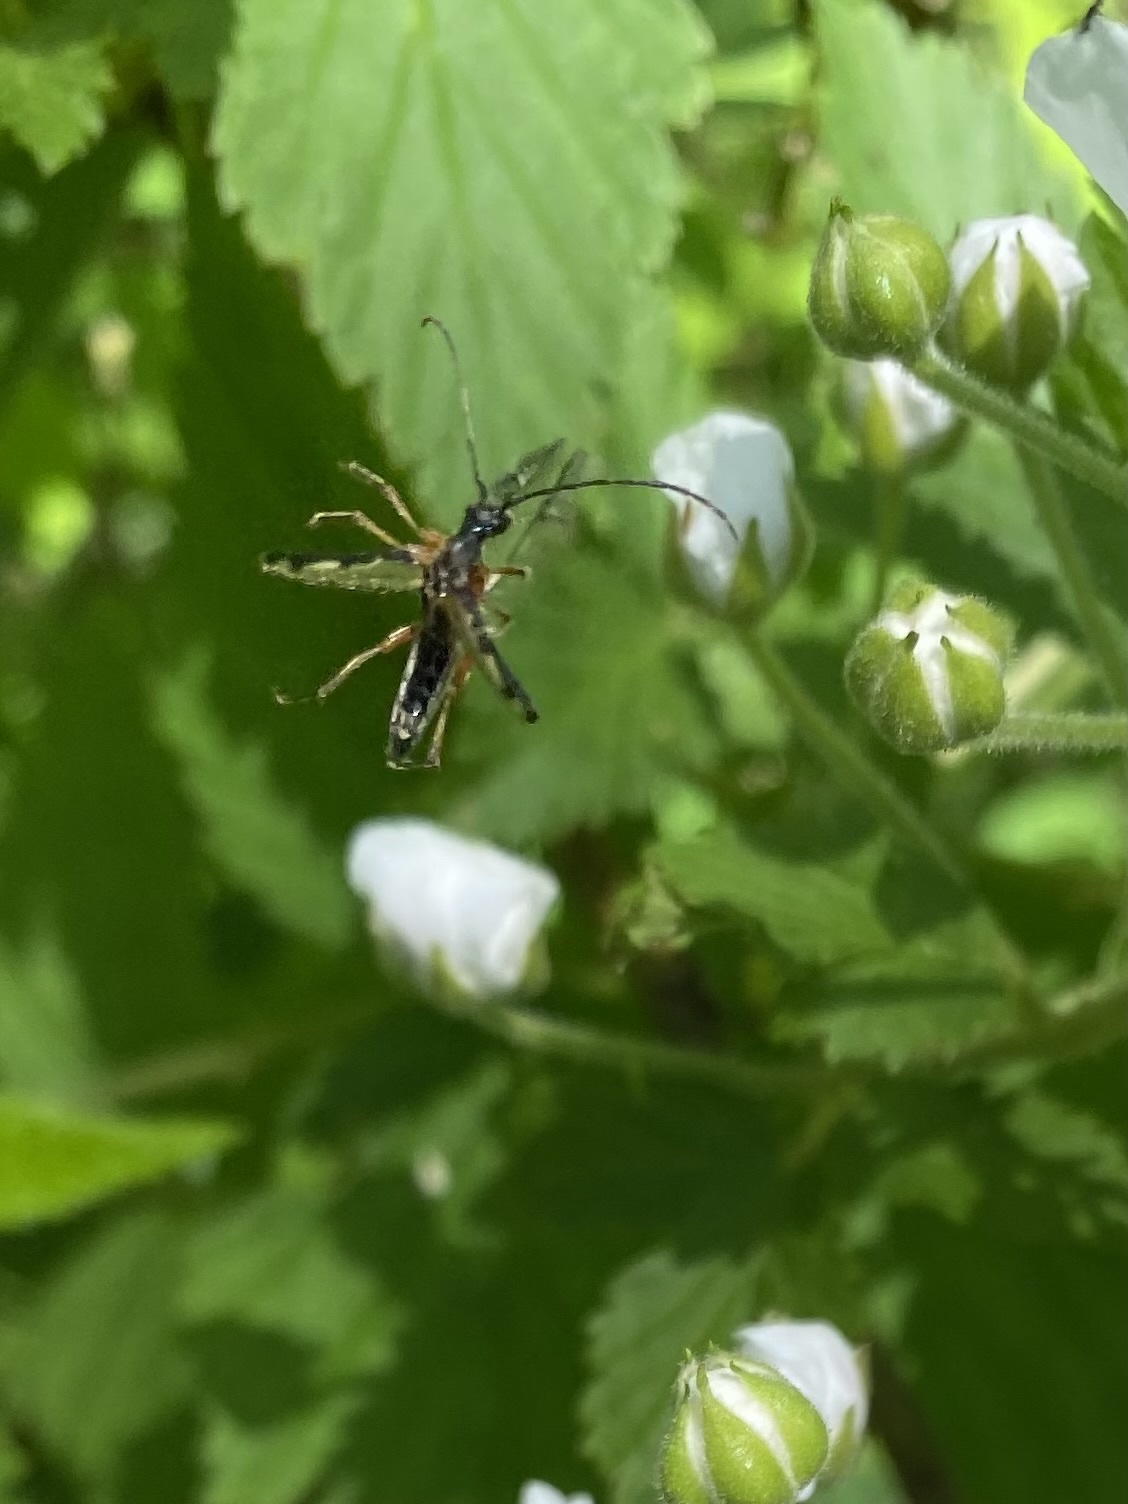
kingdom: Animalia
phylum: Arthropoda
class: Insecta
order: Coleoptera
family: Cerambycidae
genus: Analeptura
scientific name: Analeptura lineola
